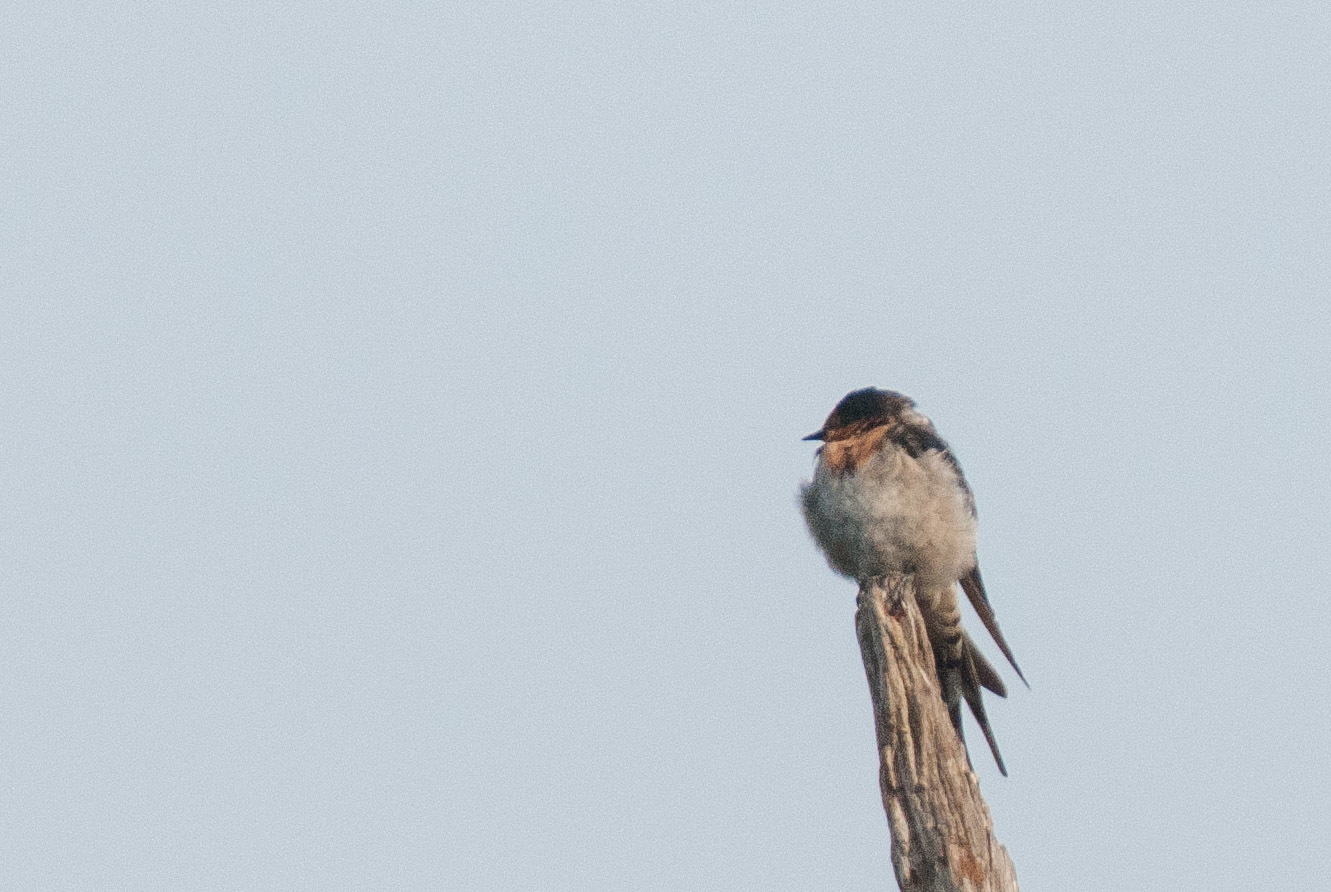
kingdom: Animalia
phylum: Chordata
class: Aves
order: Passeriformes
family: Hirundinidae
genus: Hirundo
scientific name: Hirundo neoxena
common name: Welcome swallow
